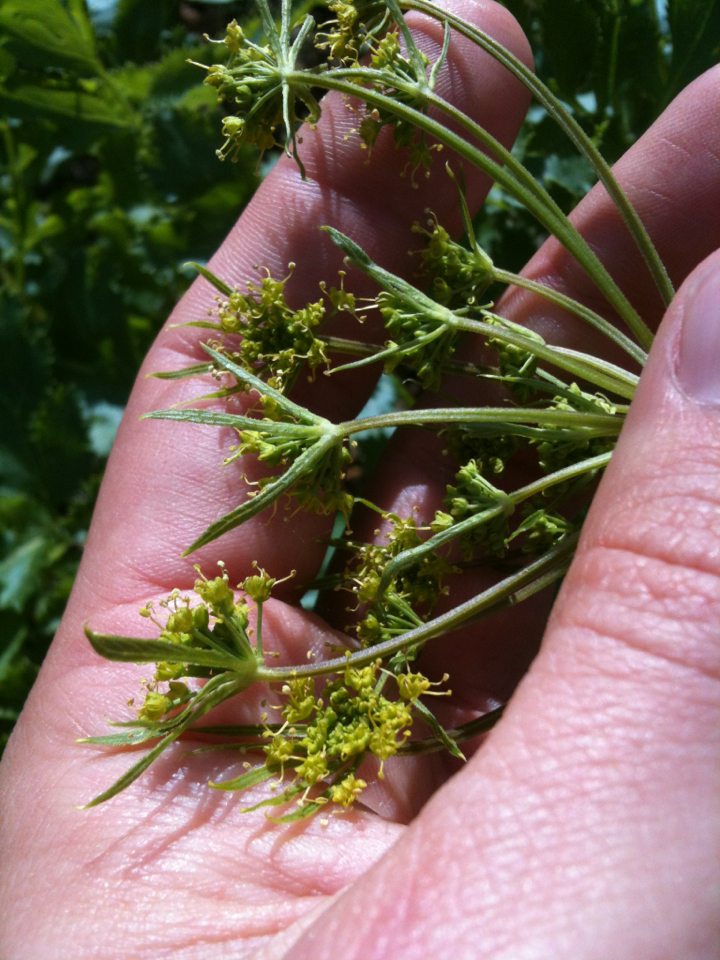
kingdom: Plantae
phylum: Tracheophyta
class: Magnoliopsida
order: Apiales
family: Apiaceae
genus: Tauschia
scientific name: Tauschia hartwegii
